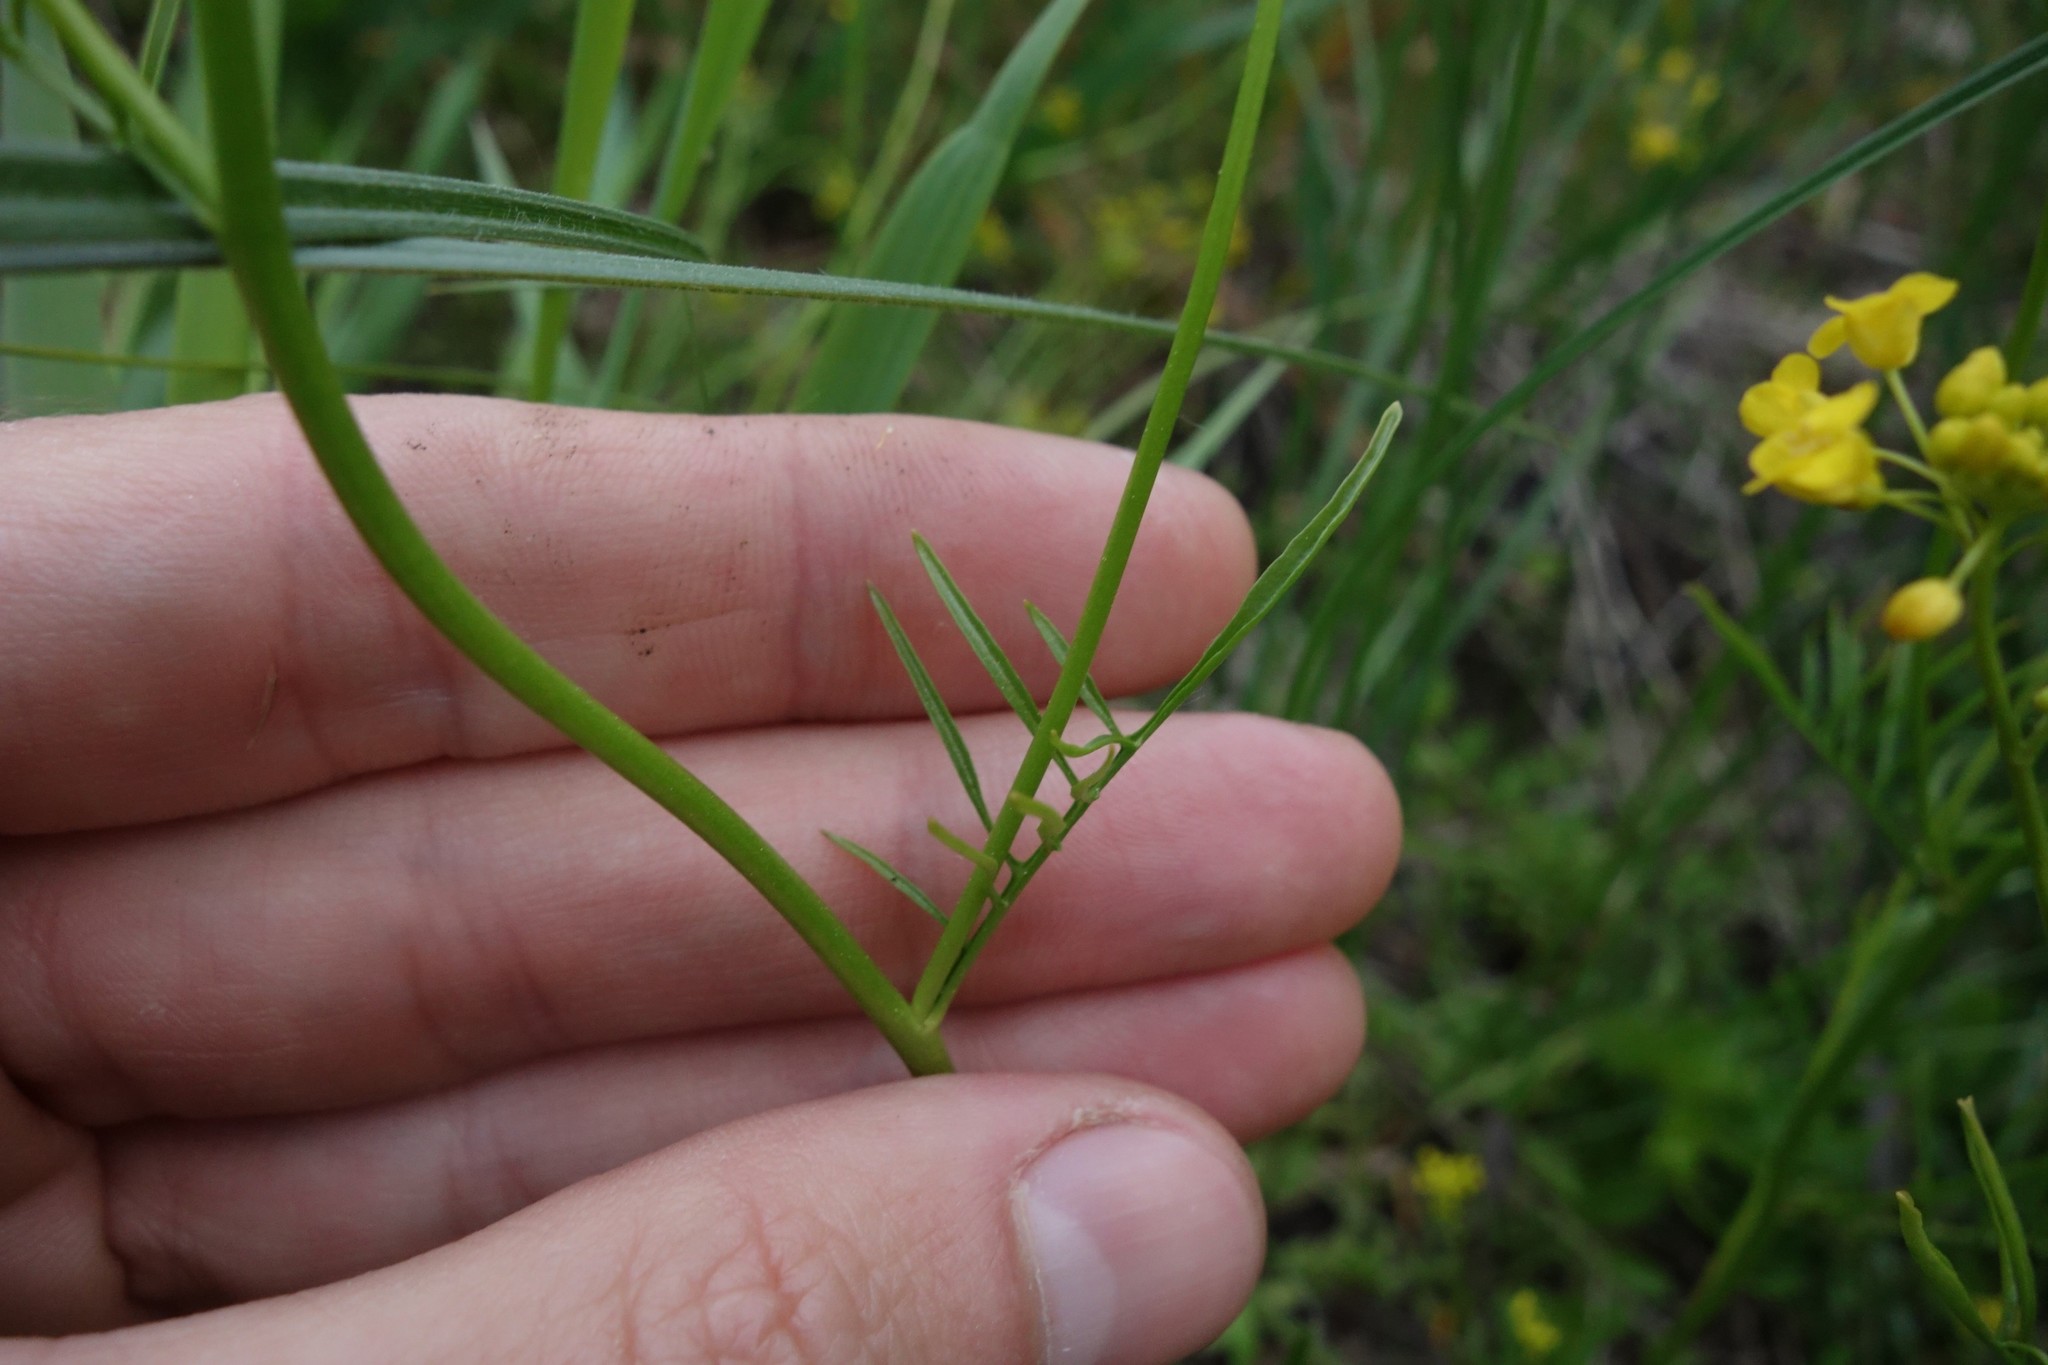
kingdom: Plantae
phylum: Tracheophyta
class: Magnoliopsida
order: Brassicales
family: Brassicaceae
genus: Rorippa
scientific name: Rorippa brachycarpa
